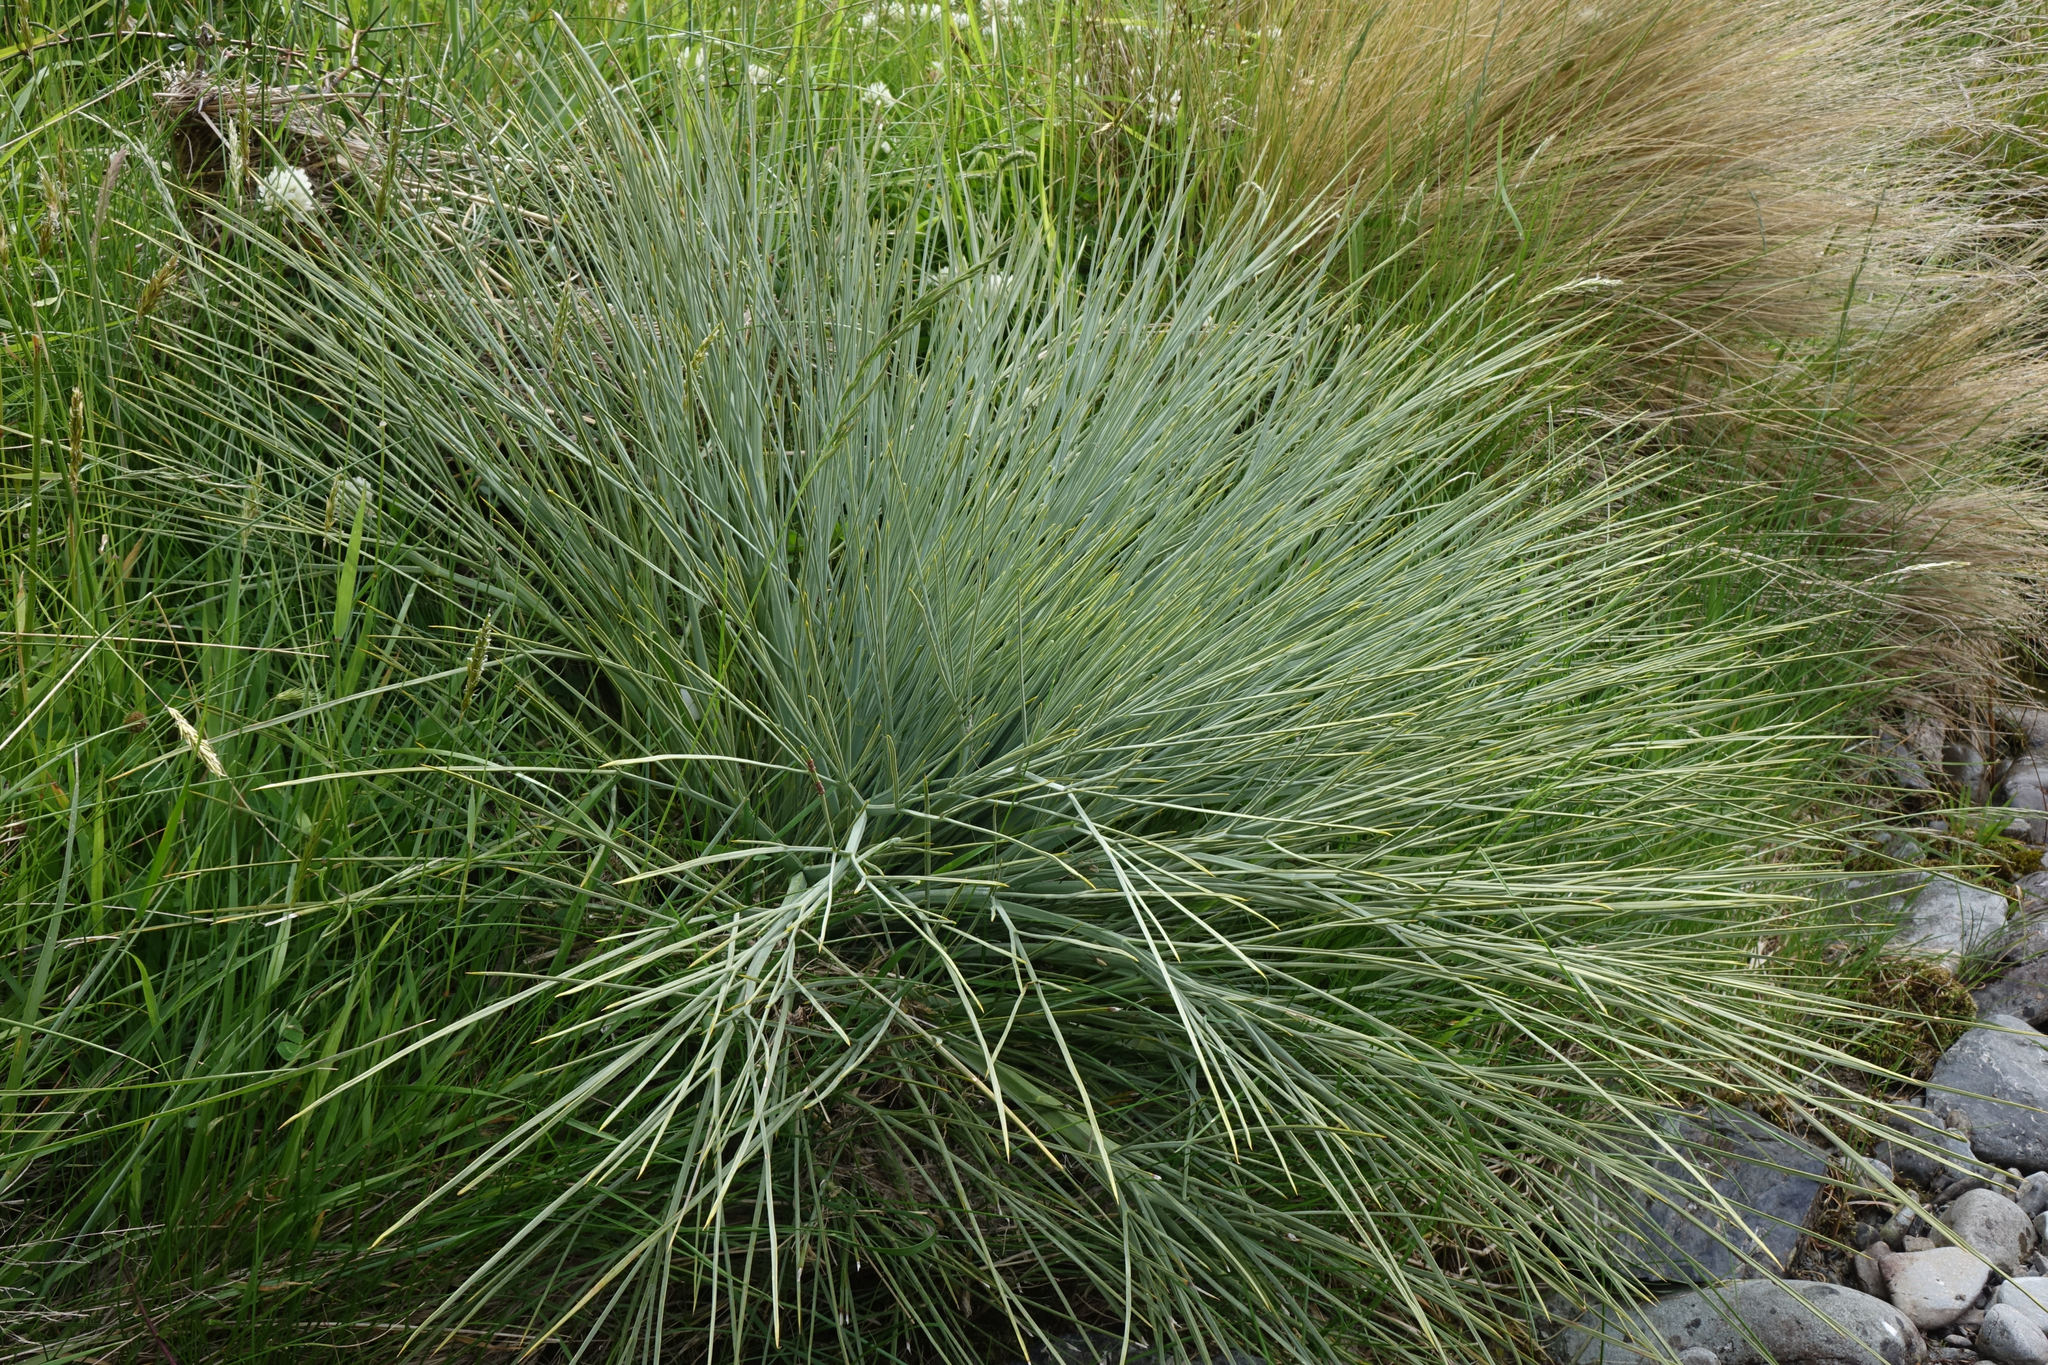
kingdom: Plantae
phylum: Tracheophyta
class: Magnoliopsida
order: Apiales
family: Apiaceae
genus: Aciphylla
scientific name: Aciphylla glaucescens
